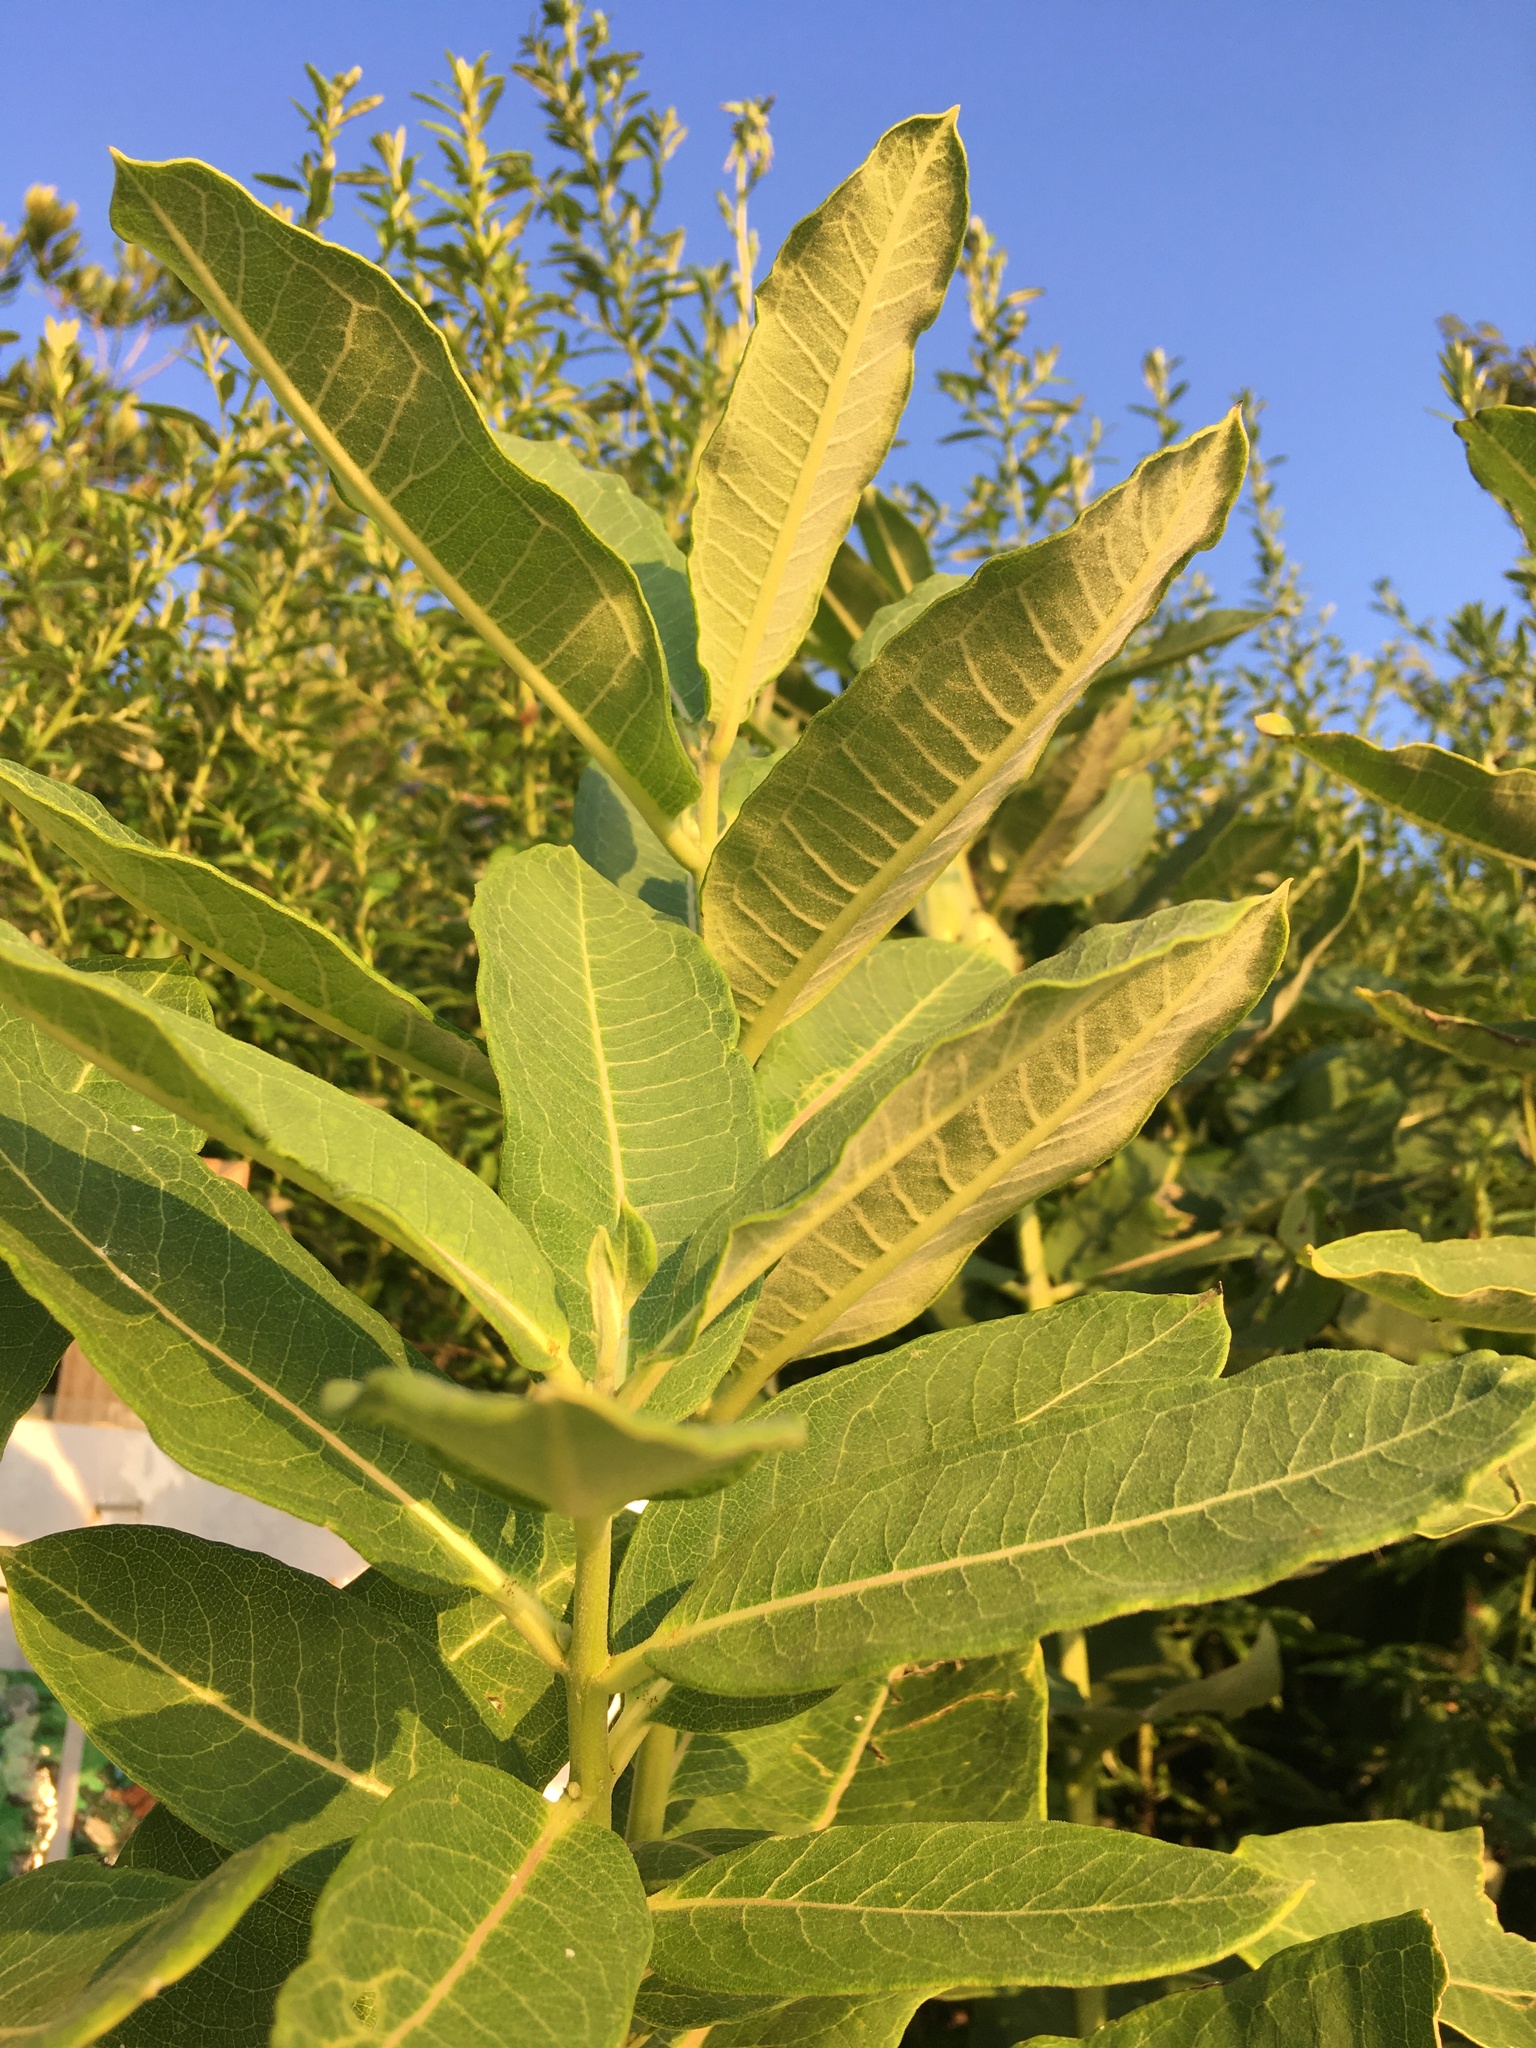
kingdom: Plantae
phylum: Tracheophyta
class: Magnoliopsida
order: Gentianales
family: Apocynaceae
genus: Asclepias
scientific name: Asclepias syriaca
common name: Common milkweed
